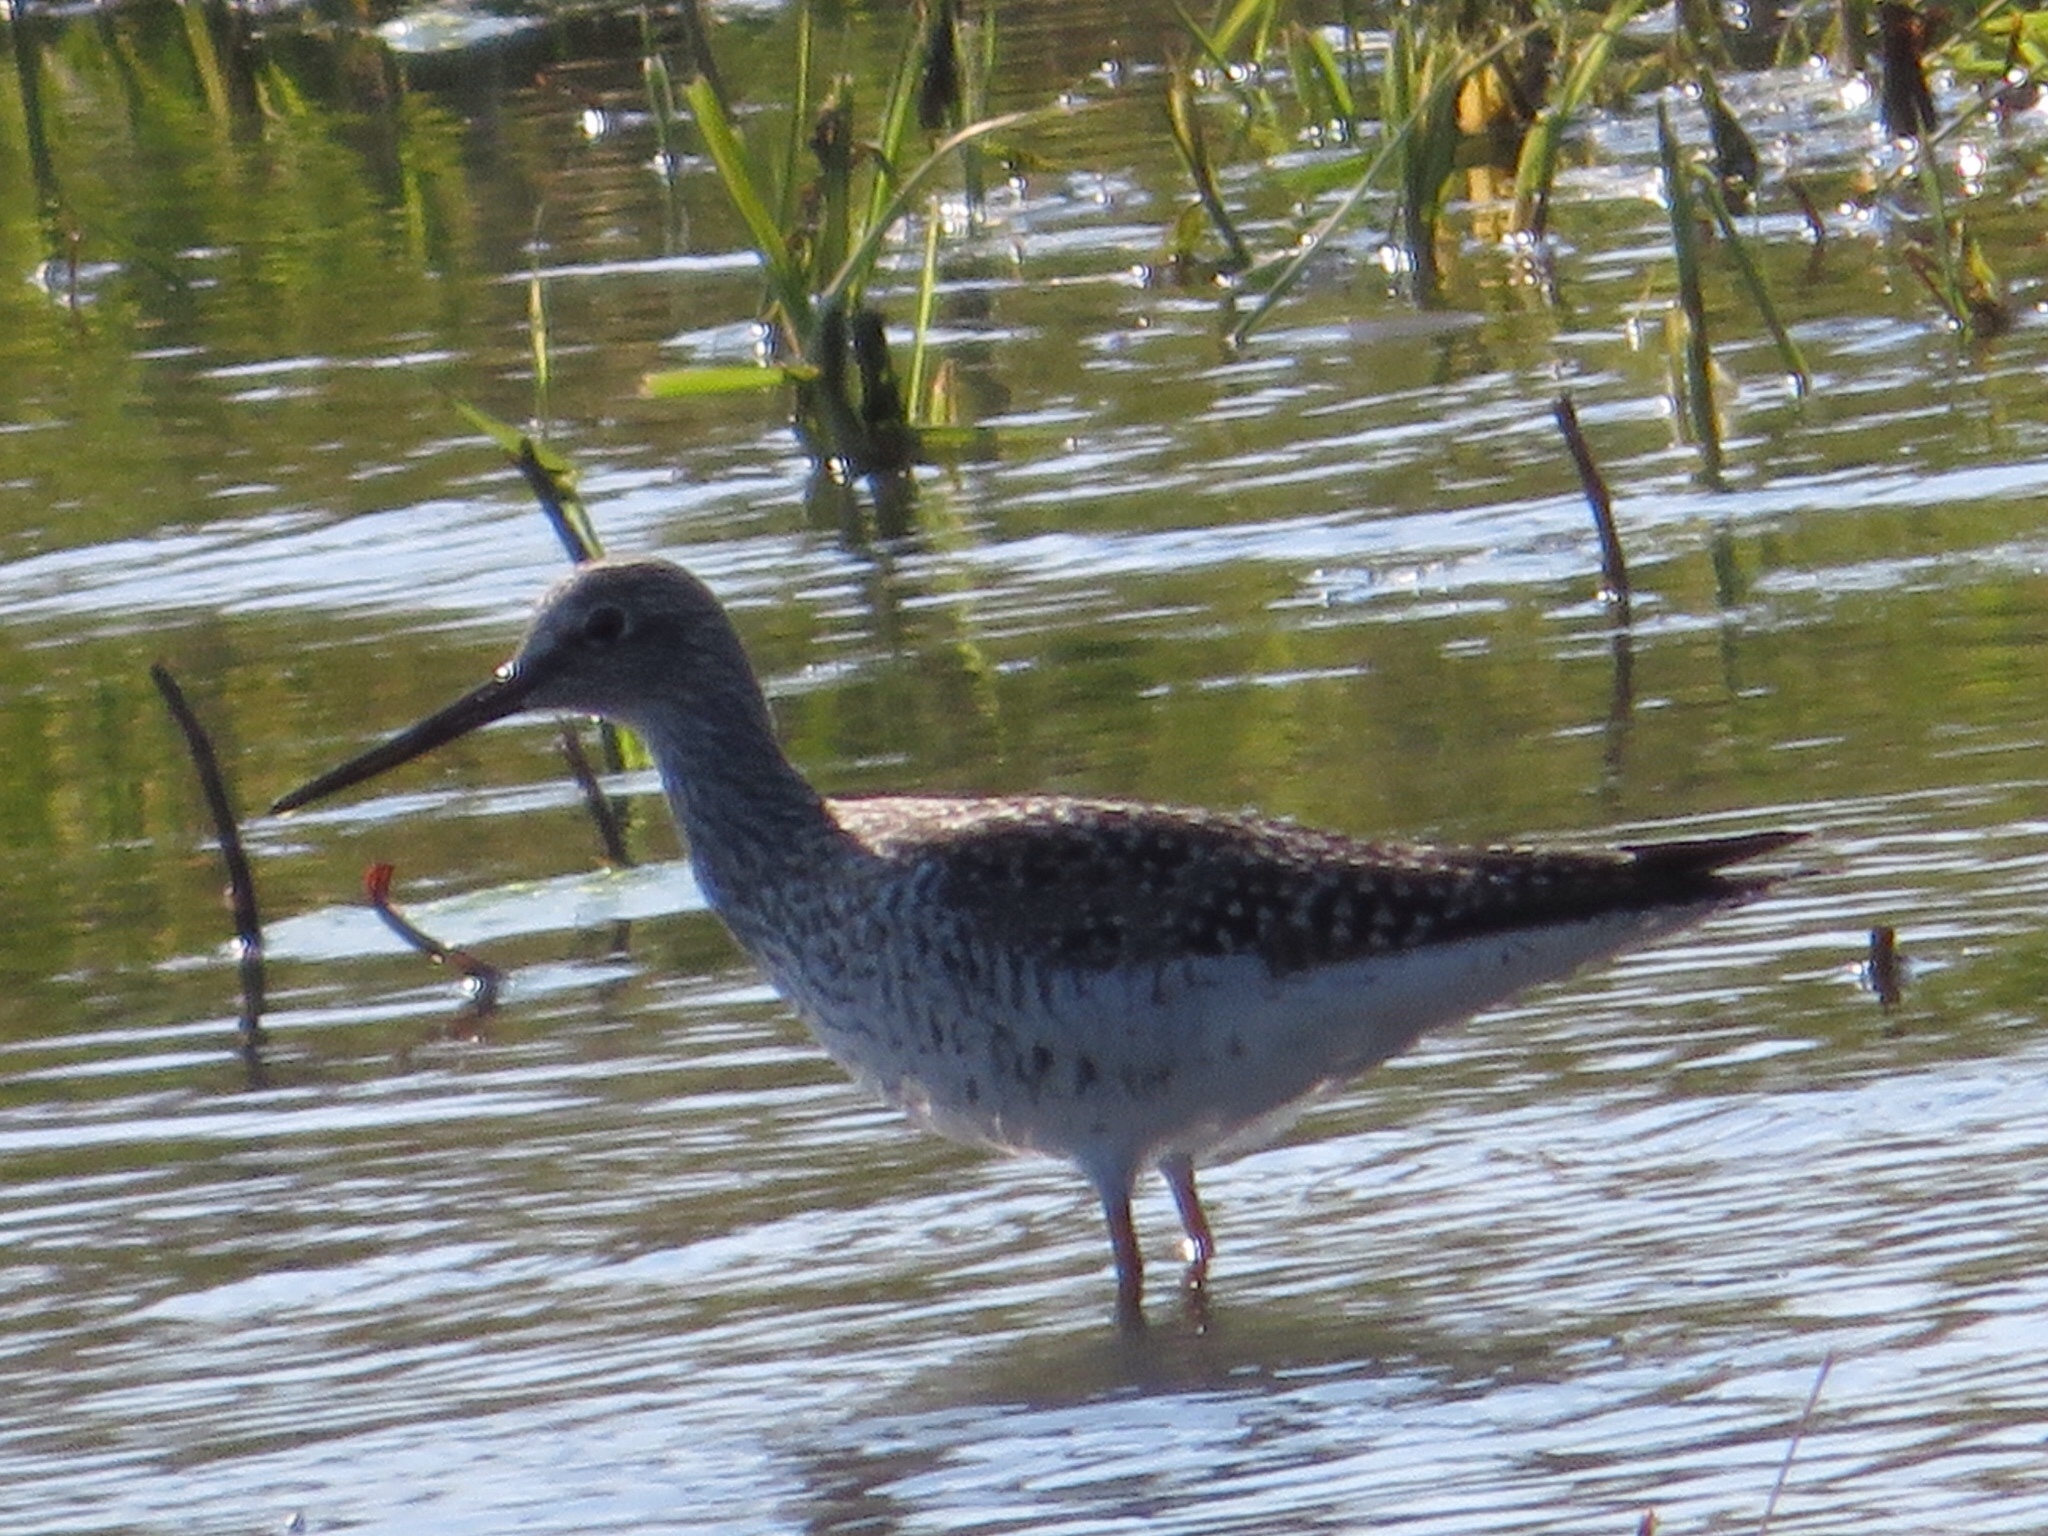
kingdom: Animalia
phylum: Chordata
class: Aves
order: Charadriiformes
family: Scolopacidae
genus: Tringa
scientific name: Tringa melanoleuca
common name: Greater yellowlegs
